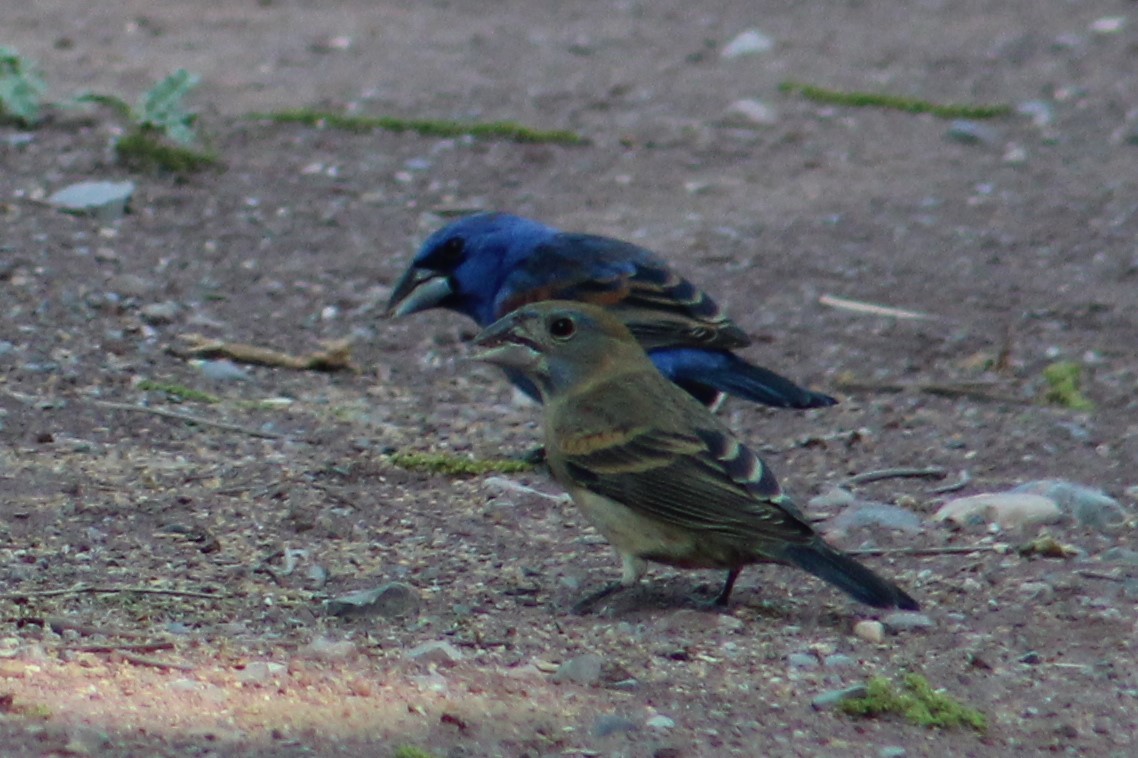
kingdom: Animalia
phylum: Chordata
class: Aves
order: Passeriformes
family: Cardinalidae
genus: Passerina
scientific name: Passerina caerulea
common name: Blue grosbeak
